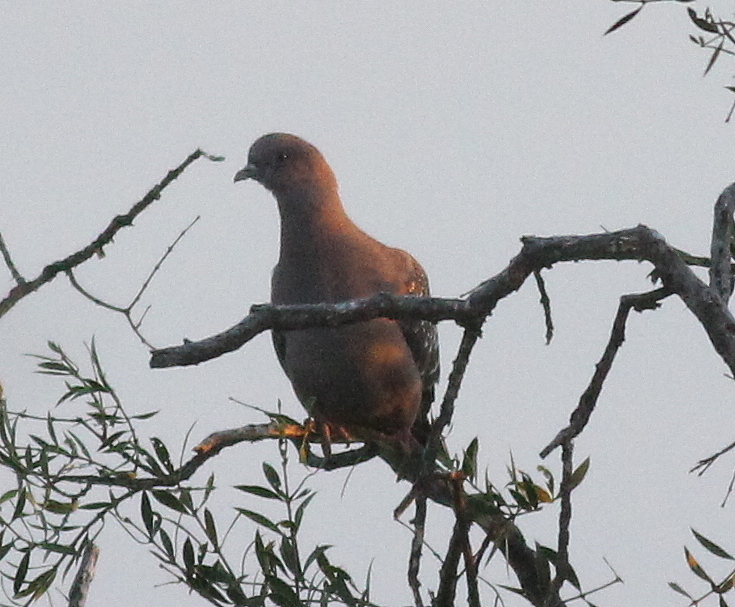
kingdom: Animalia
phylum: Chordata
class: Aves
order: Columbiformes
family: Columbidae
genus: Patagioenas
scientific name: Patagioenas maculosa
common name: Spot-winged pigeon
